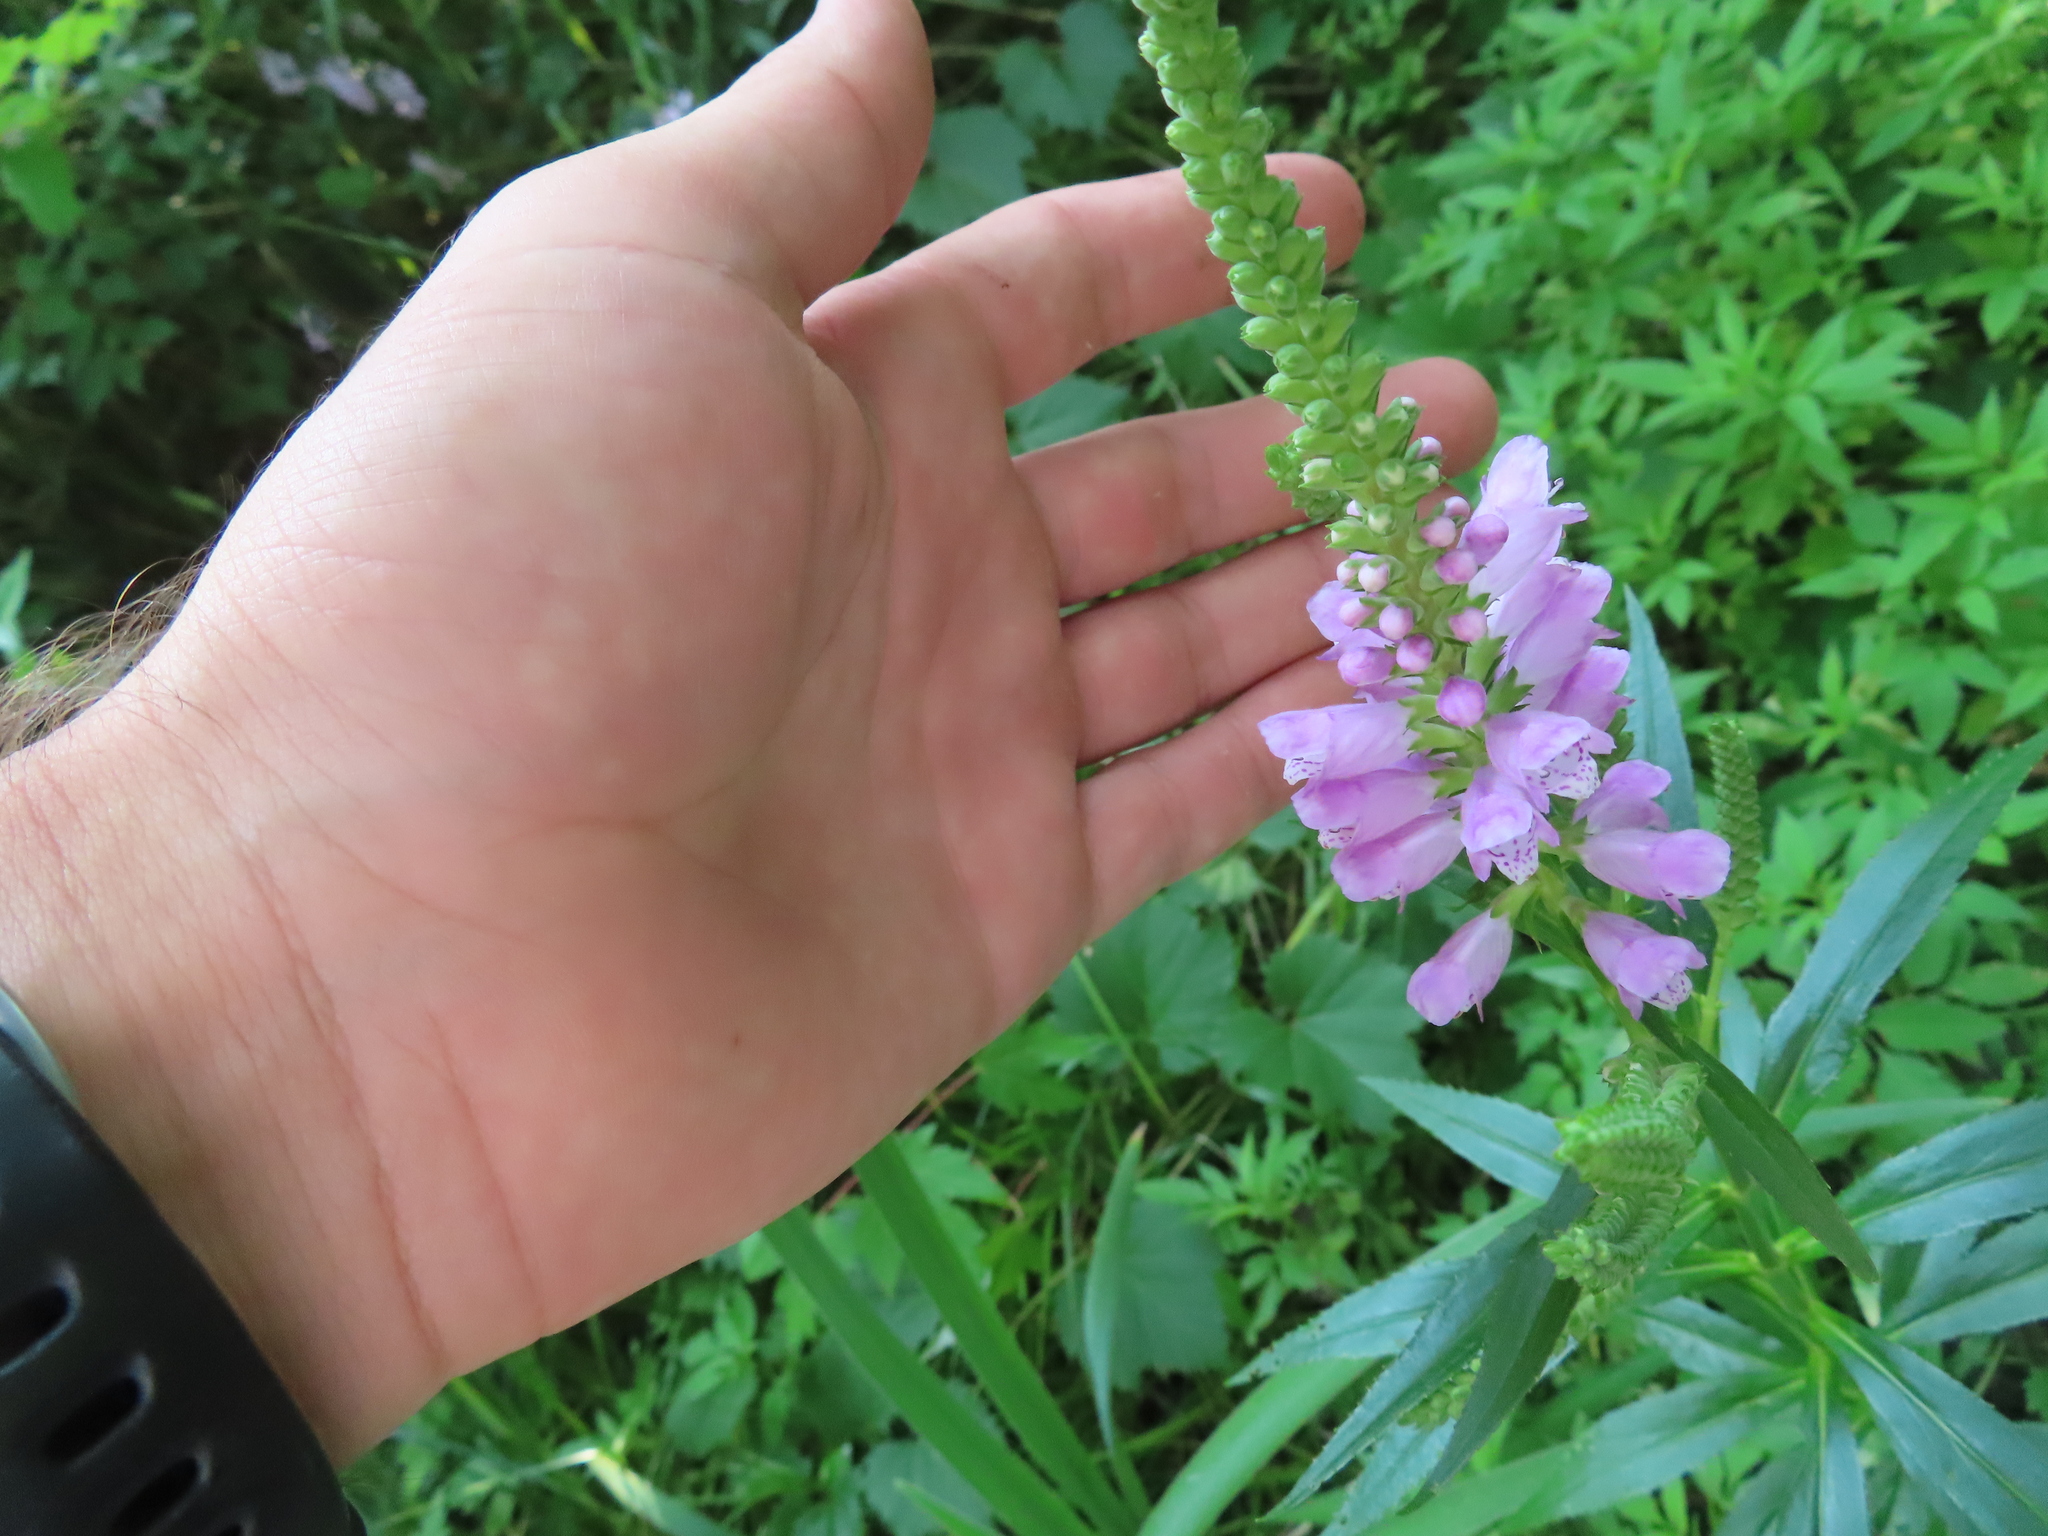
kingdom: Plantae
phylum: Tracheophyta
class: Magnoliopsida
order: Lamiales
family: Lamiaceae
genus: Physostegia
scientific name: Physostegia virginiana
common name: Obedient-plant
